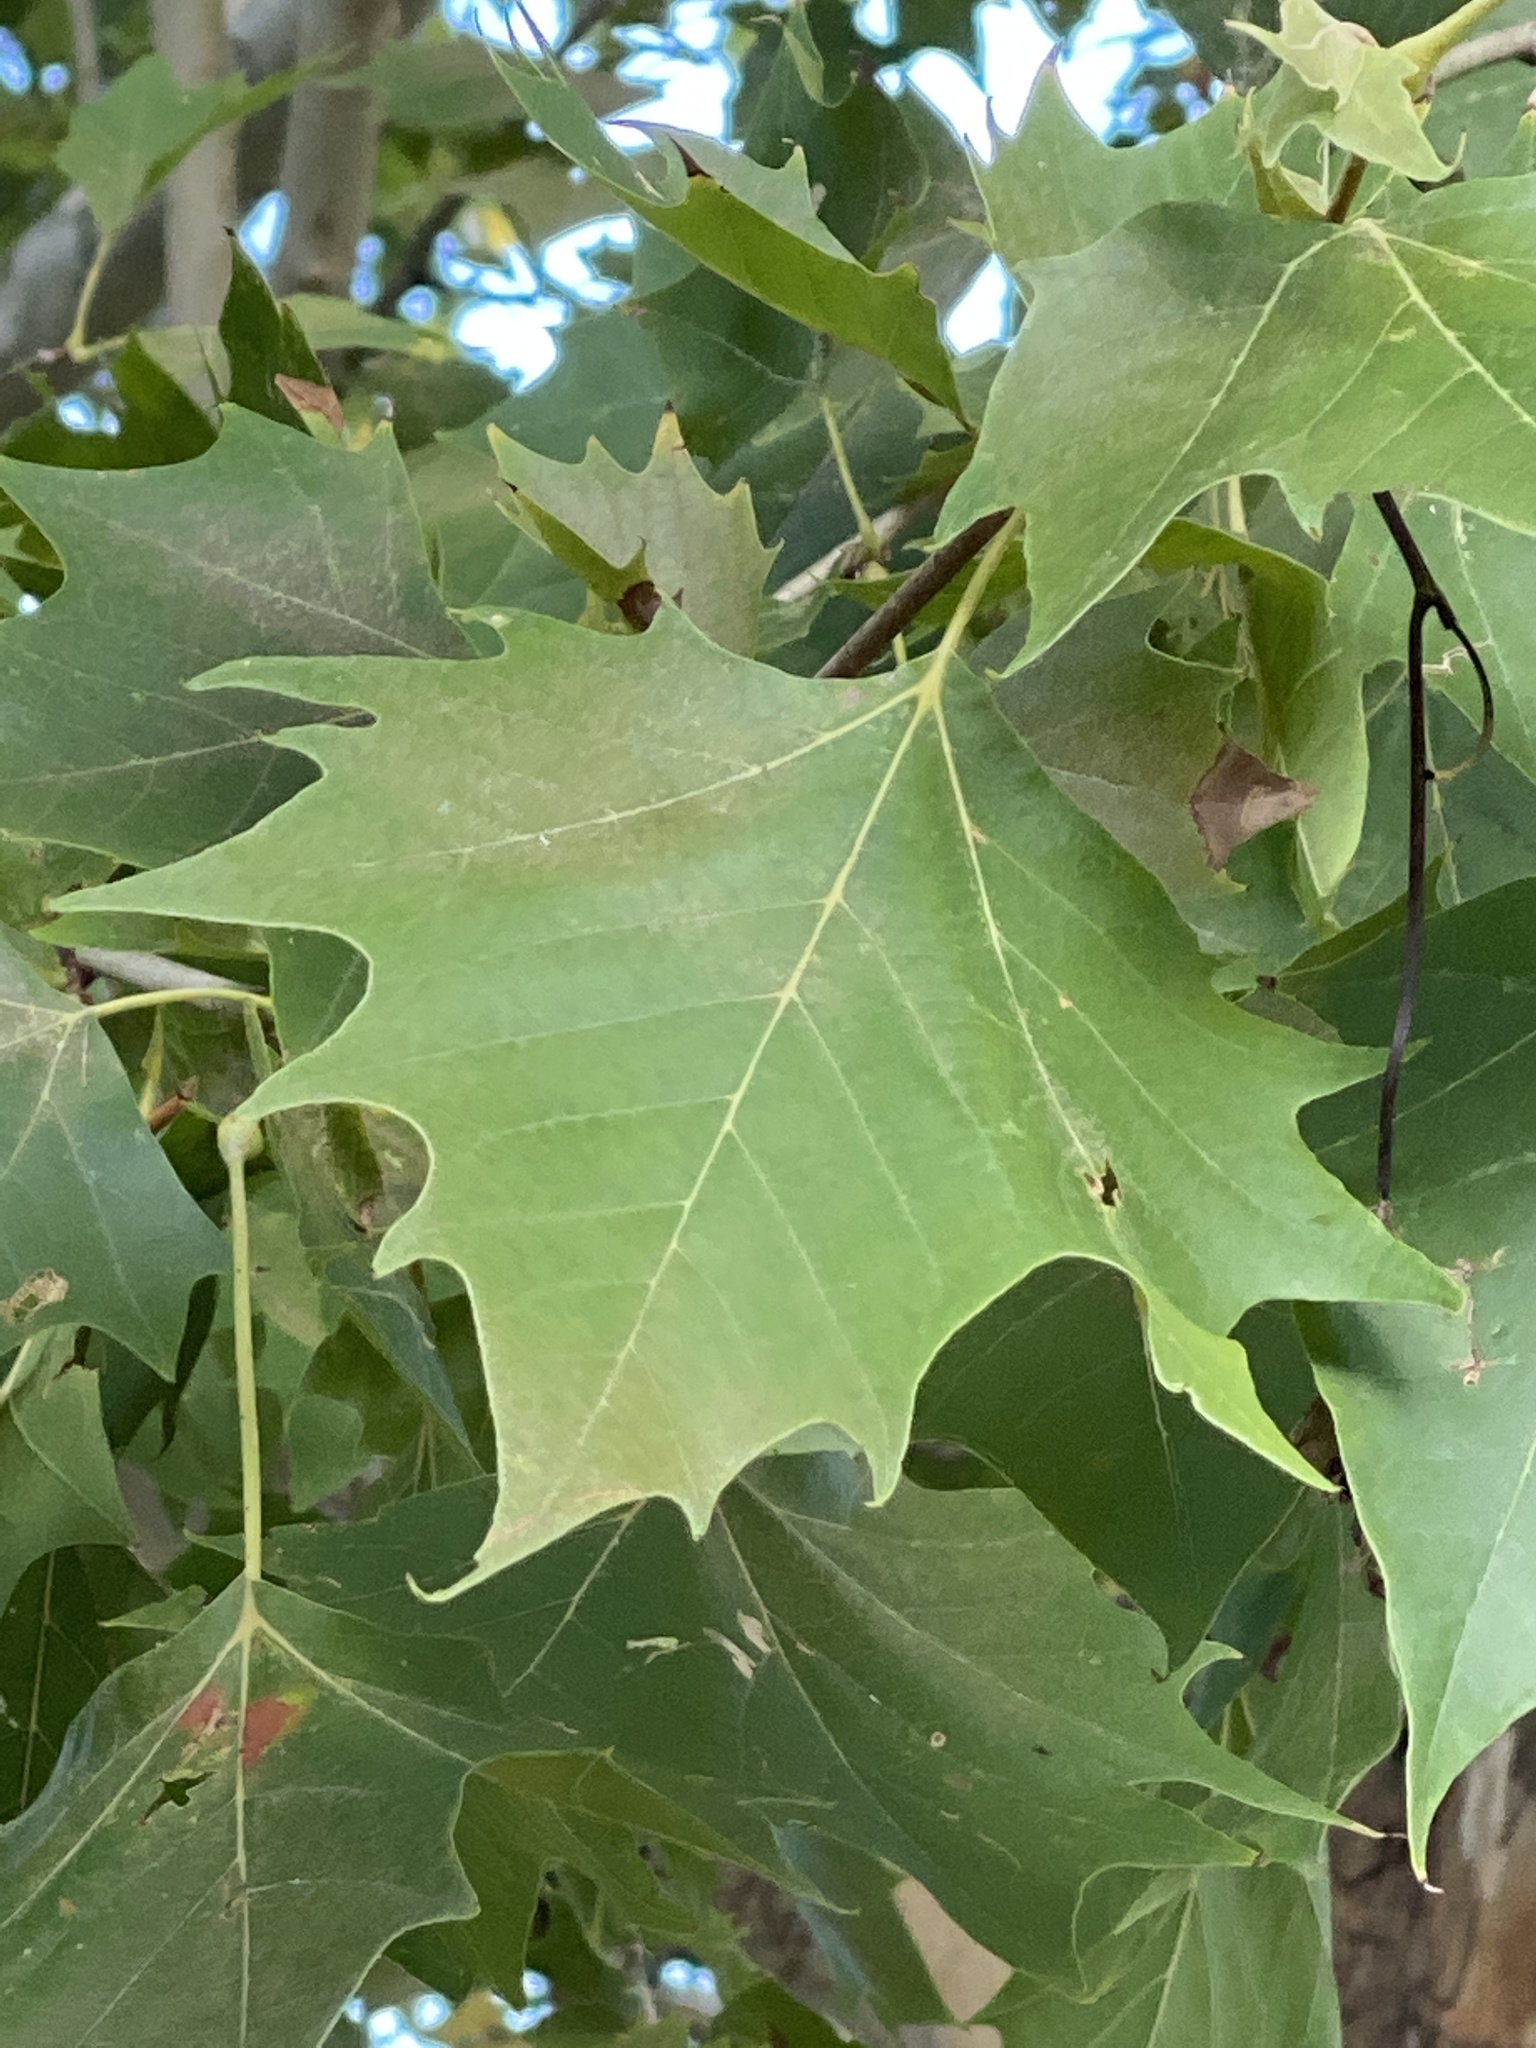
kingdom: Plantae
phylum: Tracheophyta
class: Magnoliopsida
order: Proteales
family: Platanaceae
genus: Platanus
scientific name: Platanus occidentalis
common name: American sycamore
